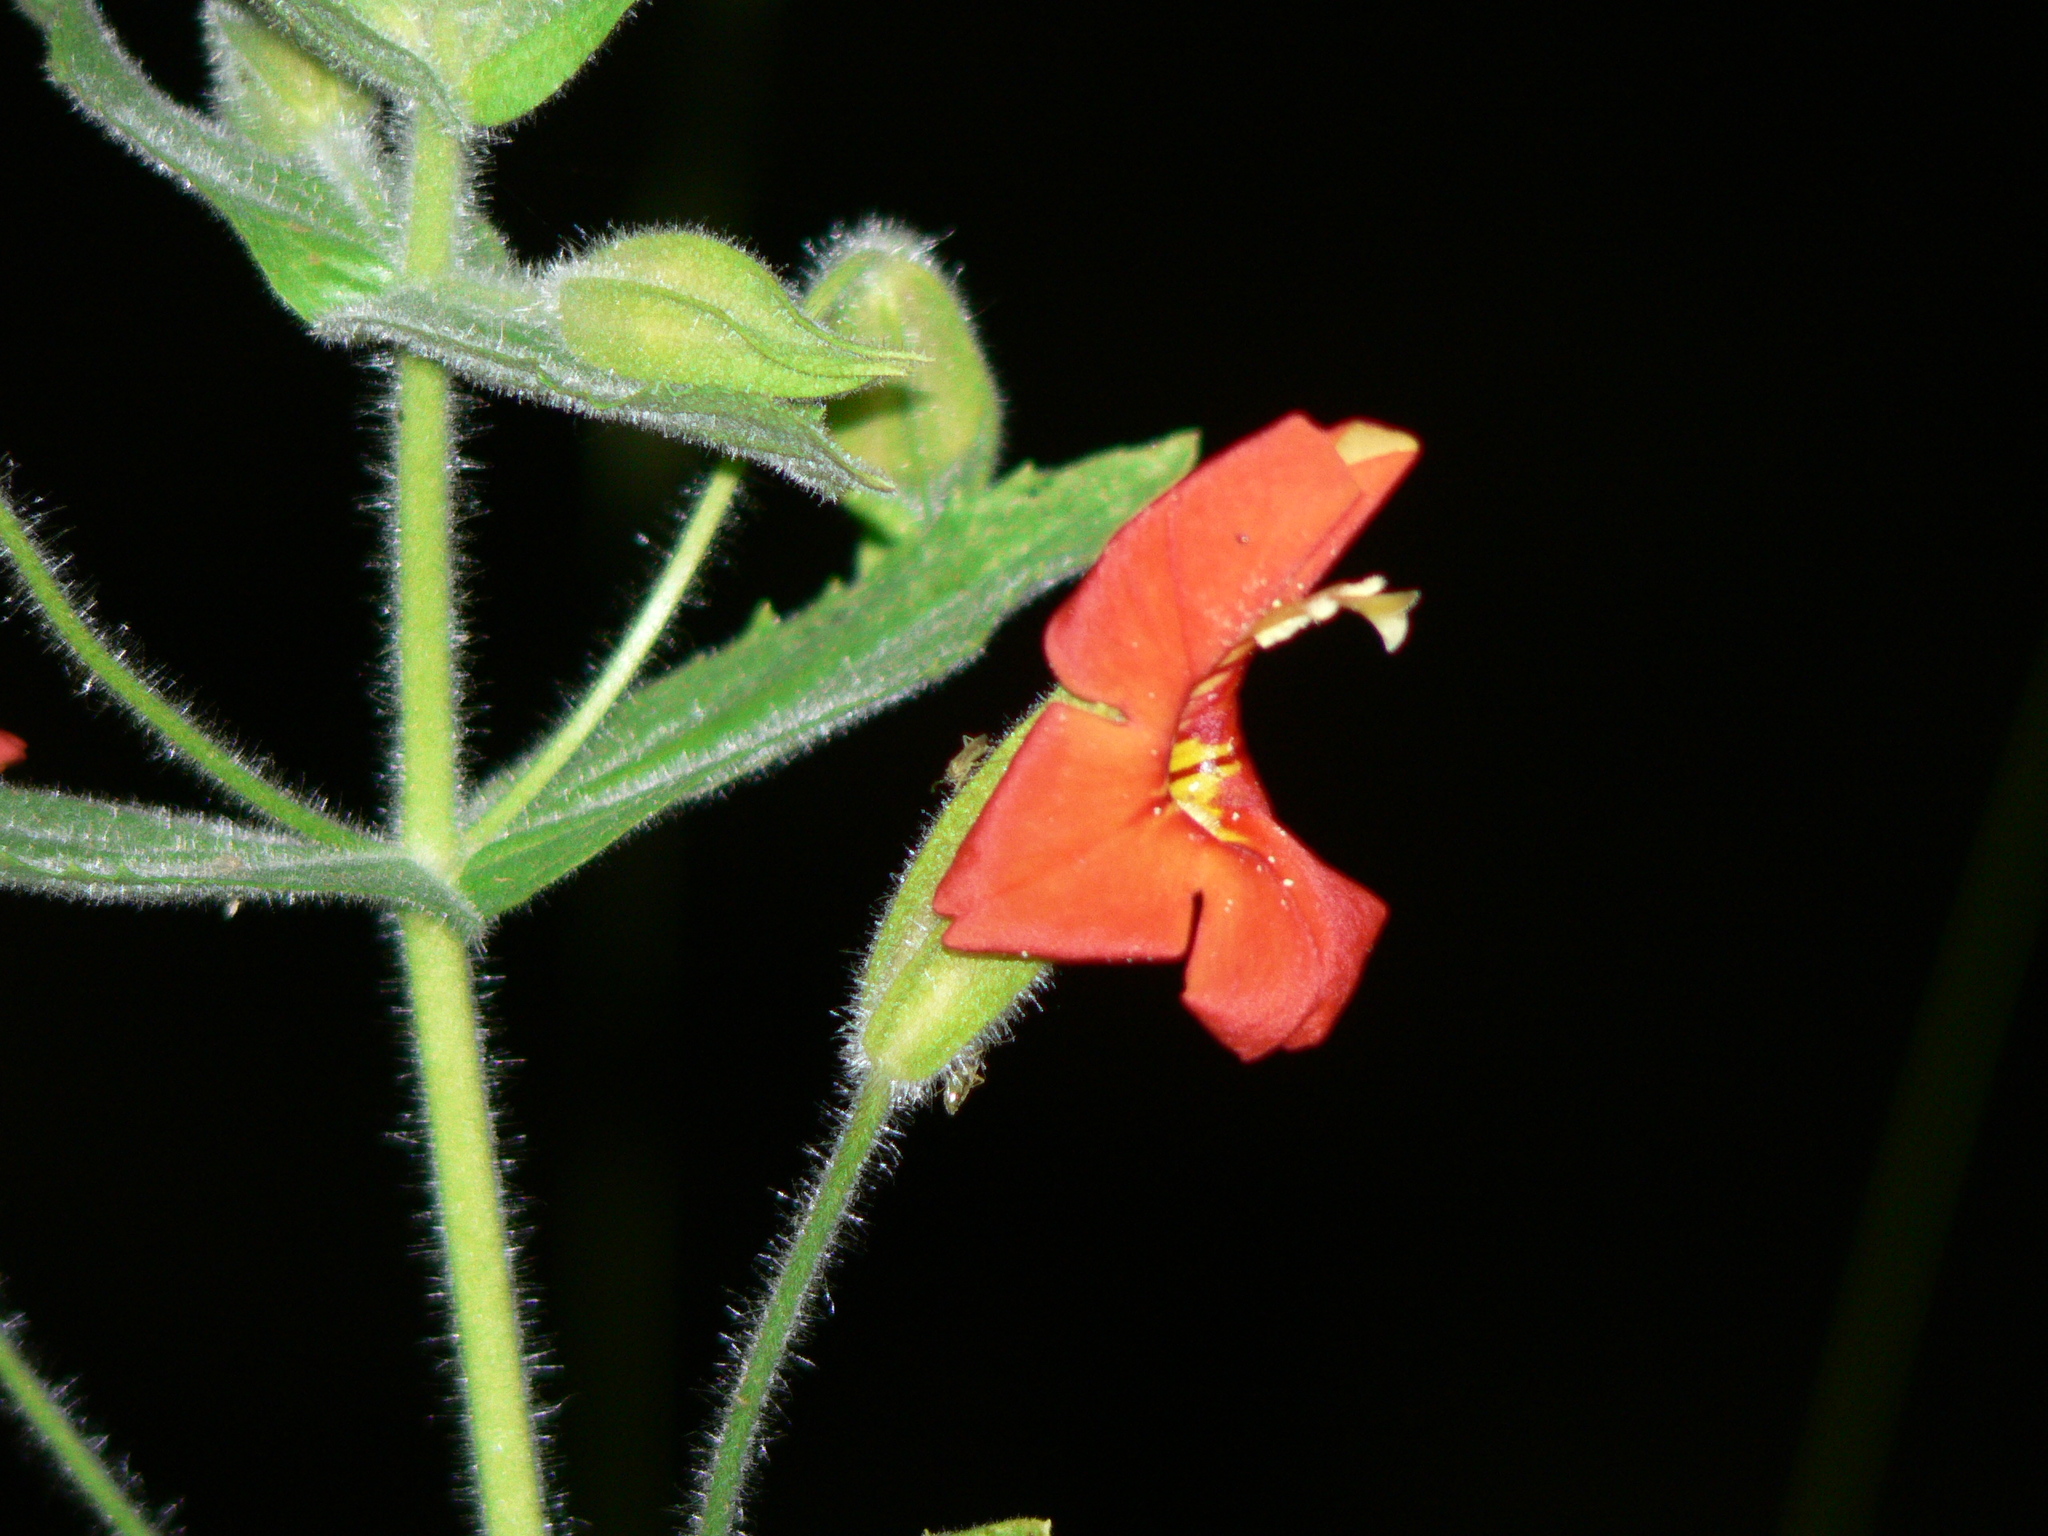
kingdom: Plantae
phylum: Tracheophyta
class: Magnoliopsida
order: Lamiales
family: Phrymaceae
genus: Erythranthe
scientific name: Erythranthe cardinalis
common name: Scarlet monkey-flower
